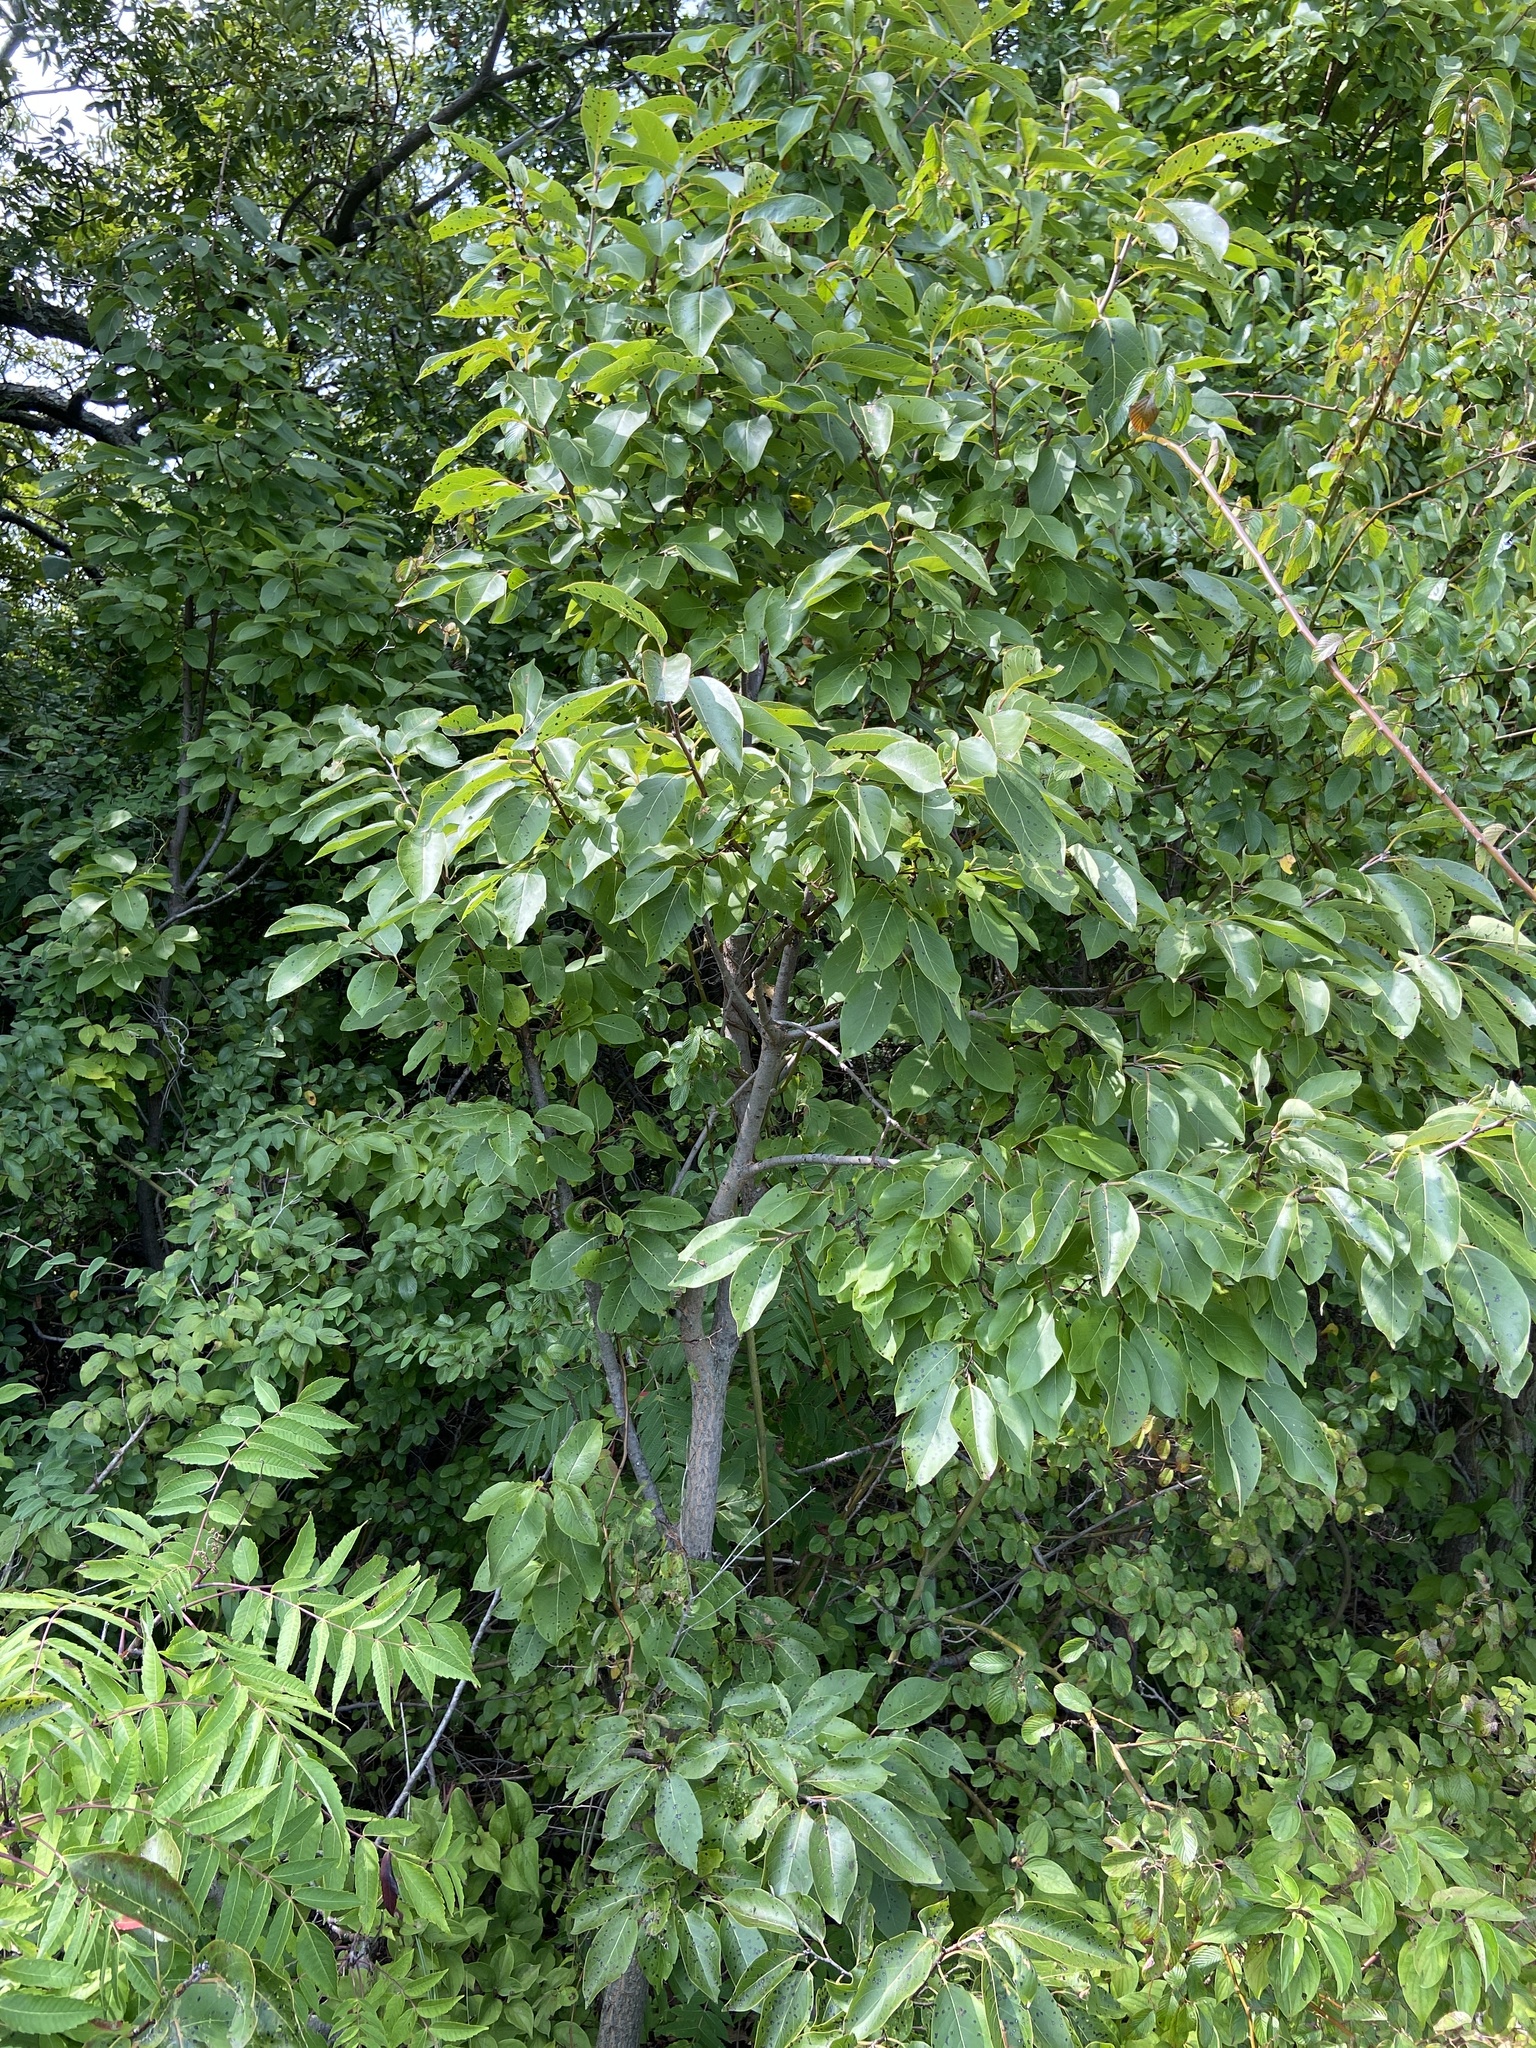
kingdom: Plantae
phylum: Tracheophyta
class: Magnoliopsida
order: Ericales
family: Ebenaceae
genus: Diospyros
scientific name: Diospyros virginiana
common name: Persimmon
